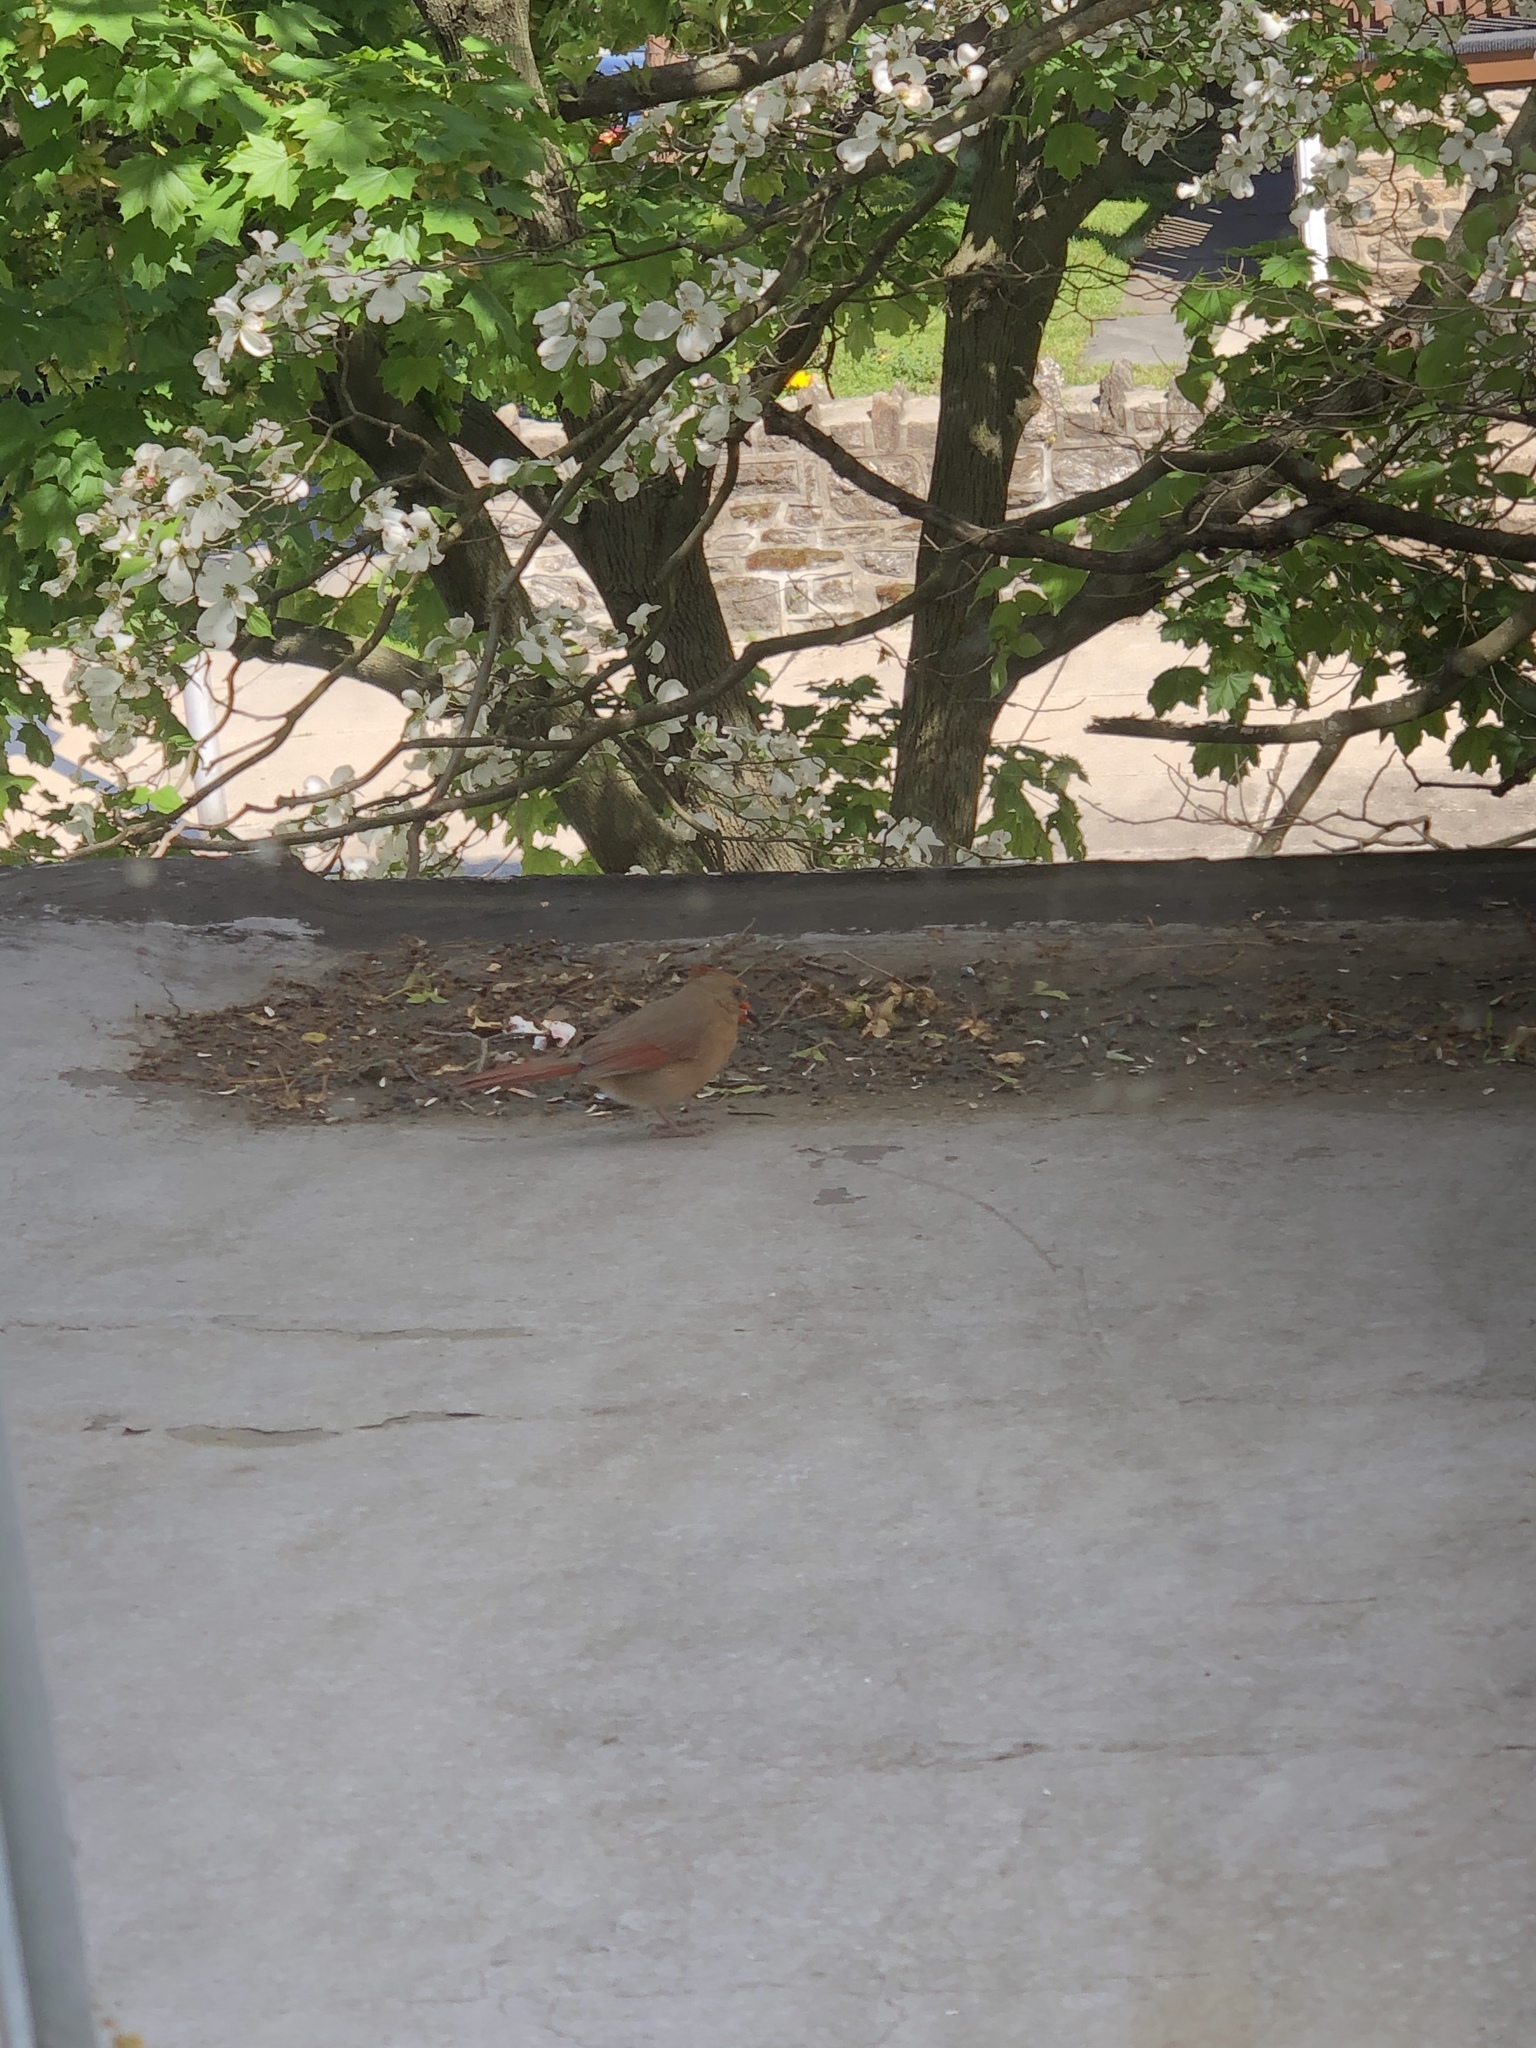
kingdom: Animalia
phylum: Chordata
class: Aves
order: Passeriformes
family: Cardinalidae
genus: Cardinalis
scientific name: Cardinalis cardinalis
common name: Northern cardinal
